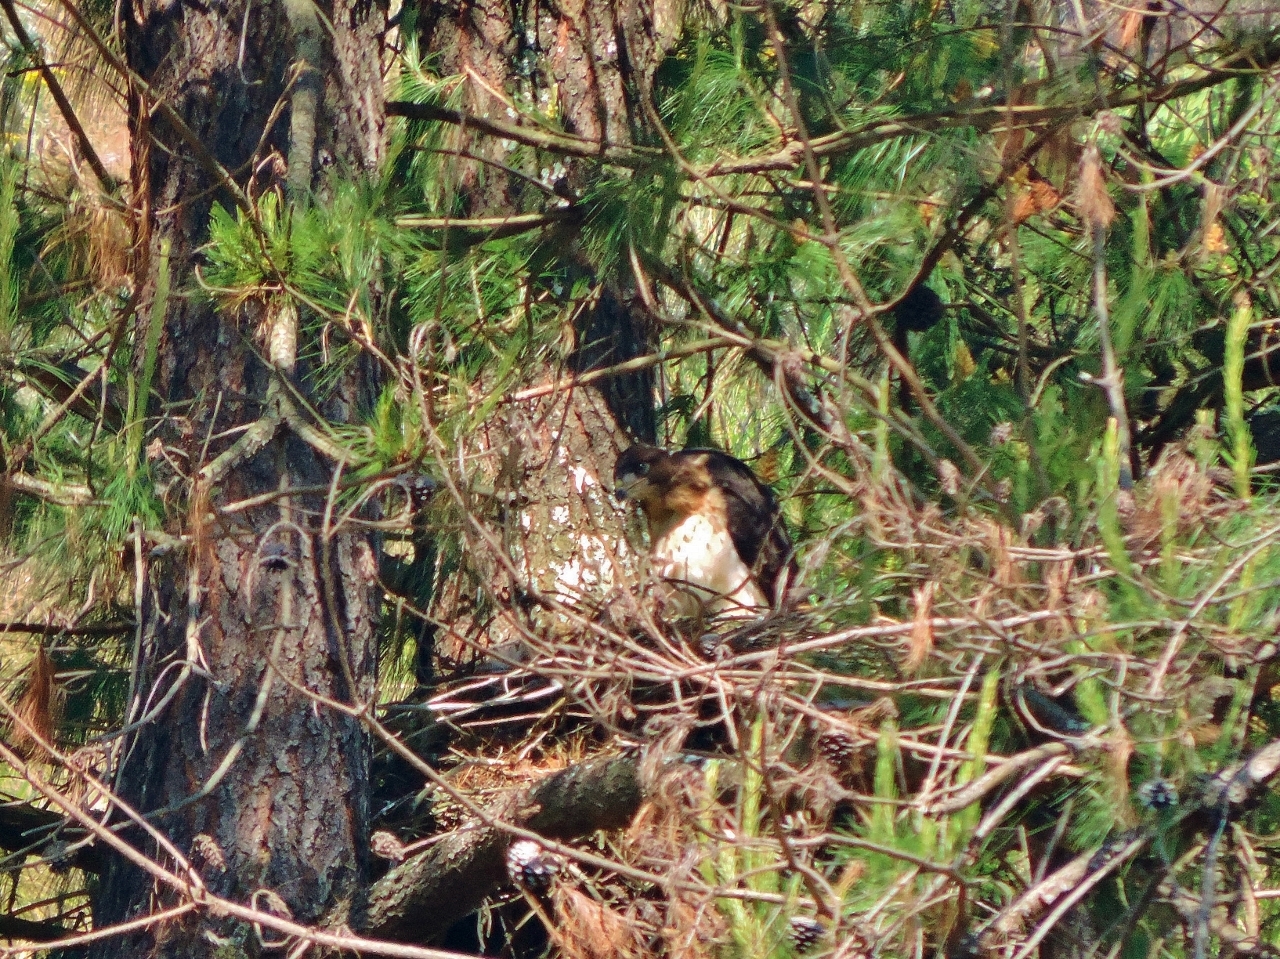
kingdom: Animalia
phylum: Chordata
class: Aves
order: Accipitriformes
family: Accipitridae
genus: Buteo
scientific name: Buteo augur
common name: Augur buzzard
